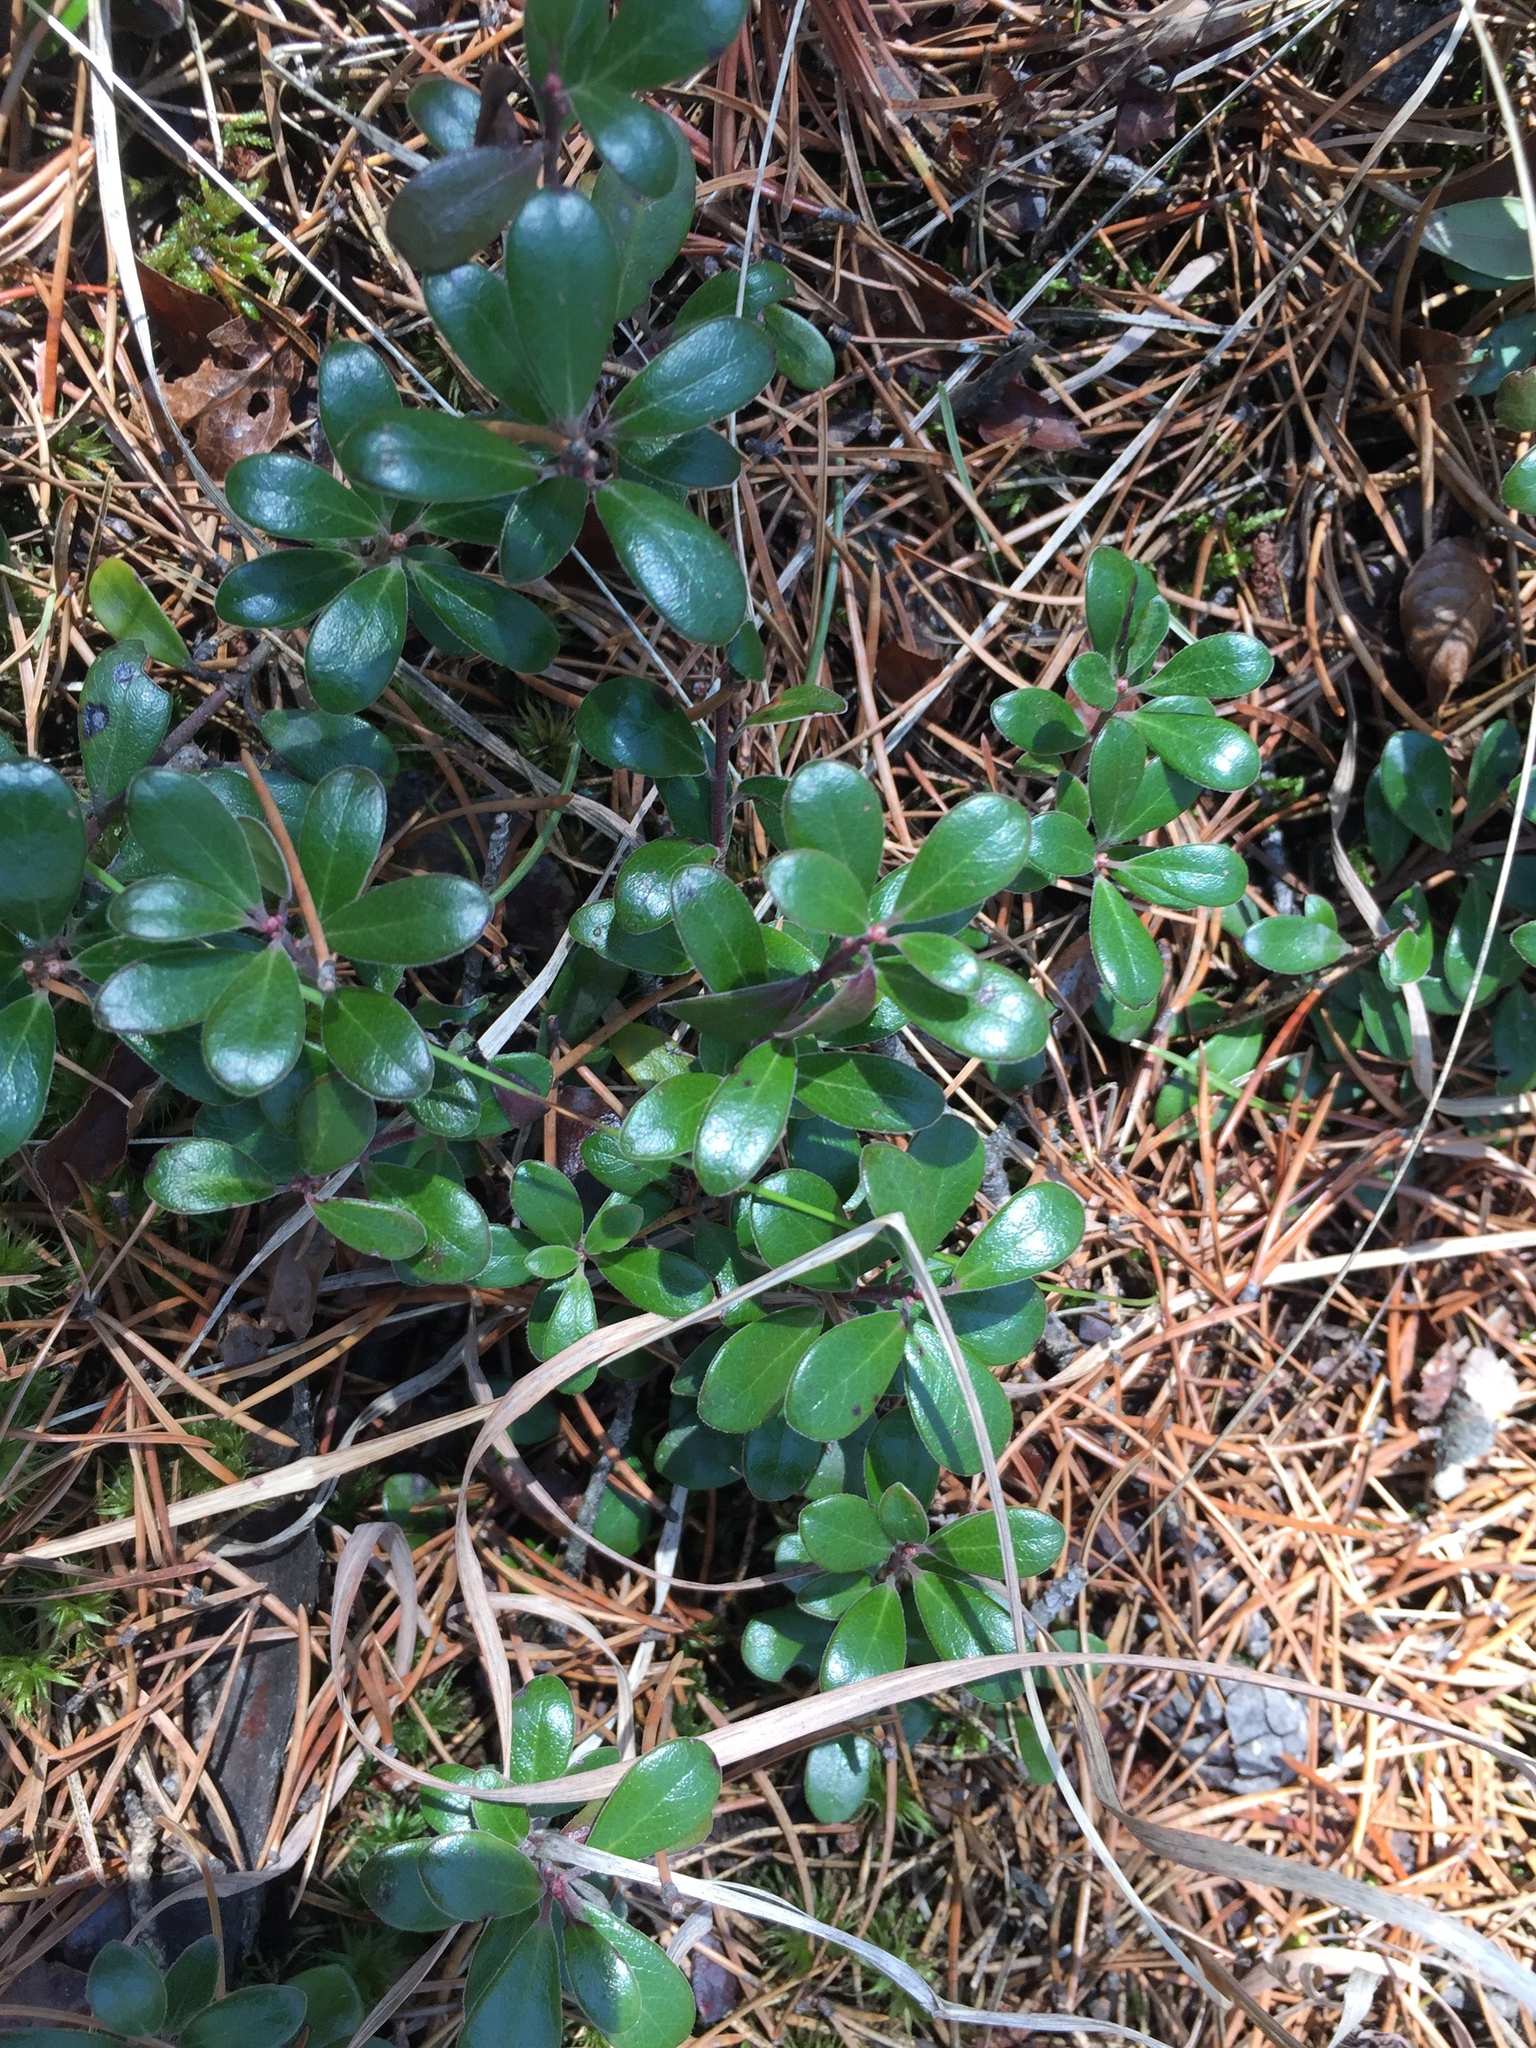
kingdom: Plantae
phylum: Tracheophyta
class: Magnoliopsida
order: Ericales
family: Ericaceae
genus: Arctostaphylos
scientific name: Arctostaphylos uva-ursi
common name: Bearberry
